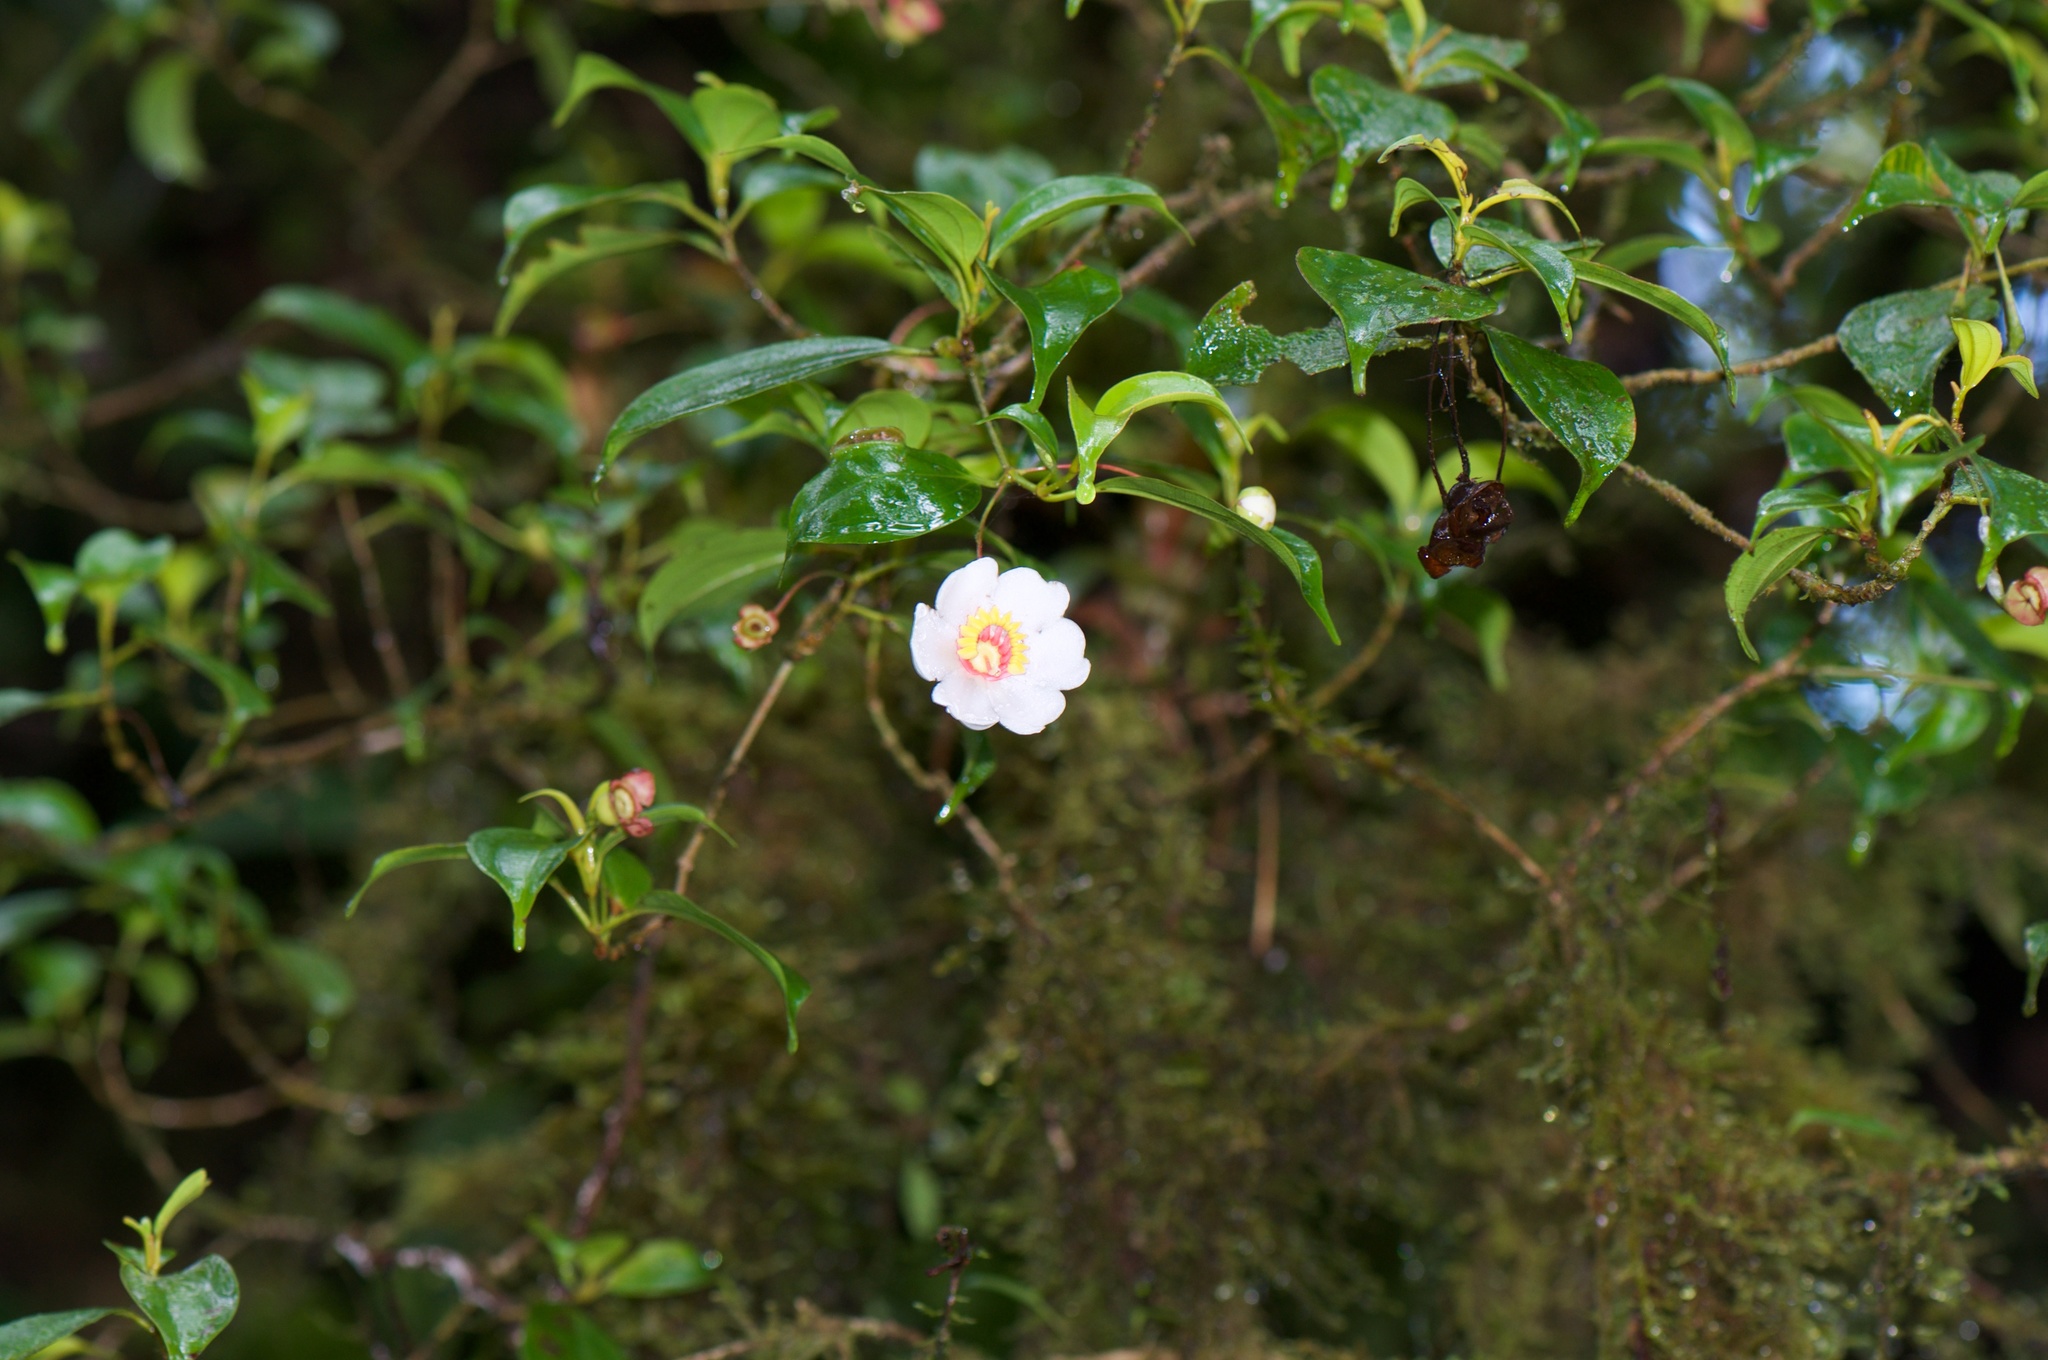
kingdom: Plantae
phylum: Tracheophyta
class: Magnoliopsida
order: Myrtales
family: Melastomataceae
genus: Blakea
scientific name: Blakea anomala
